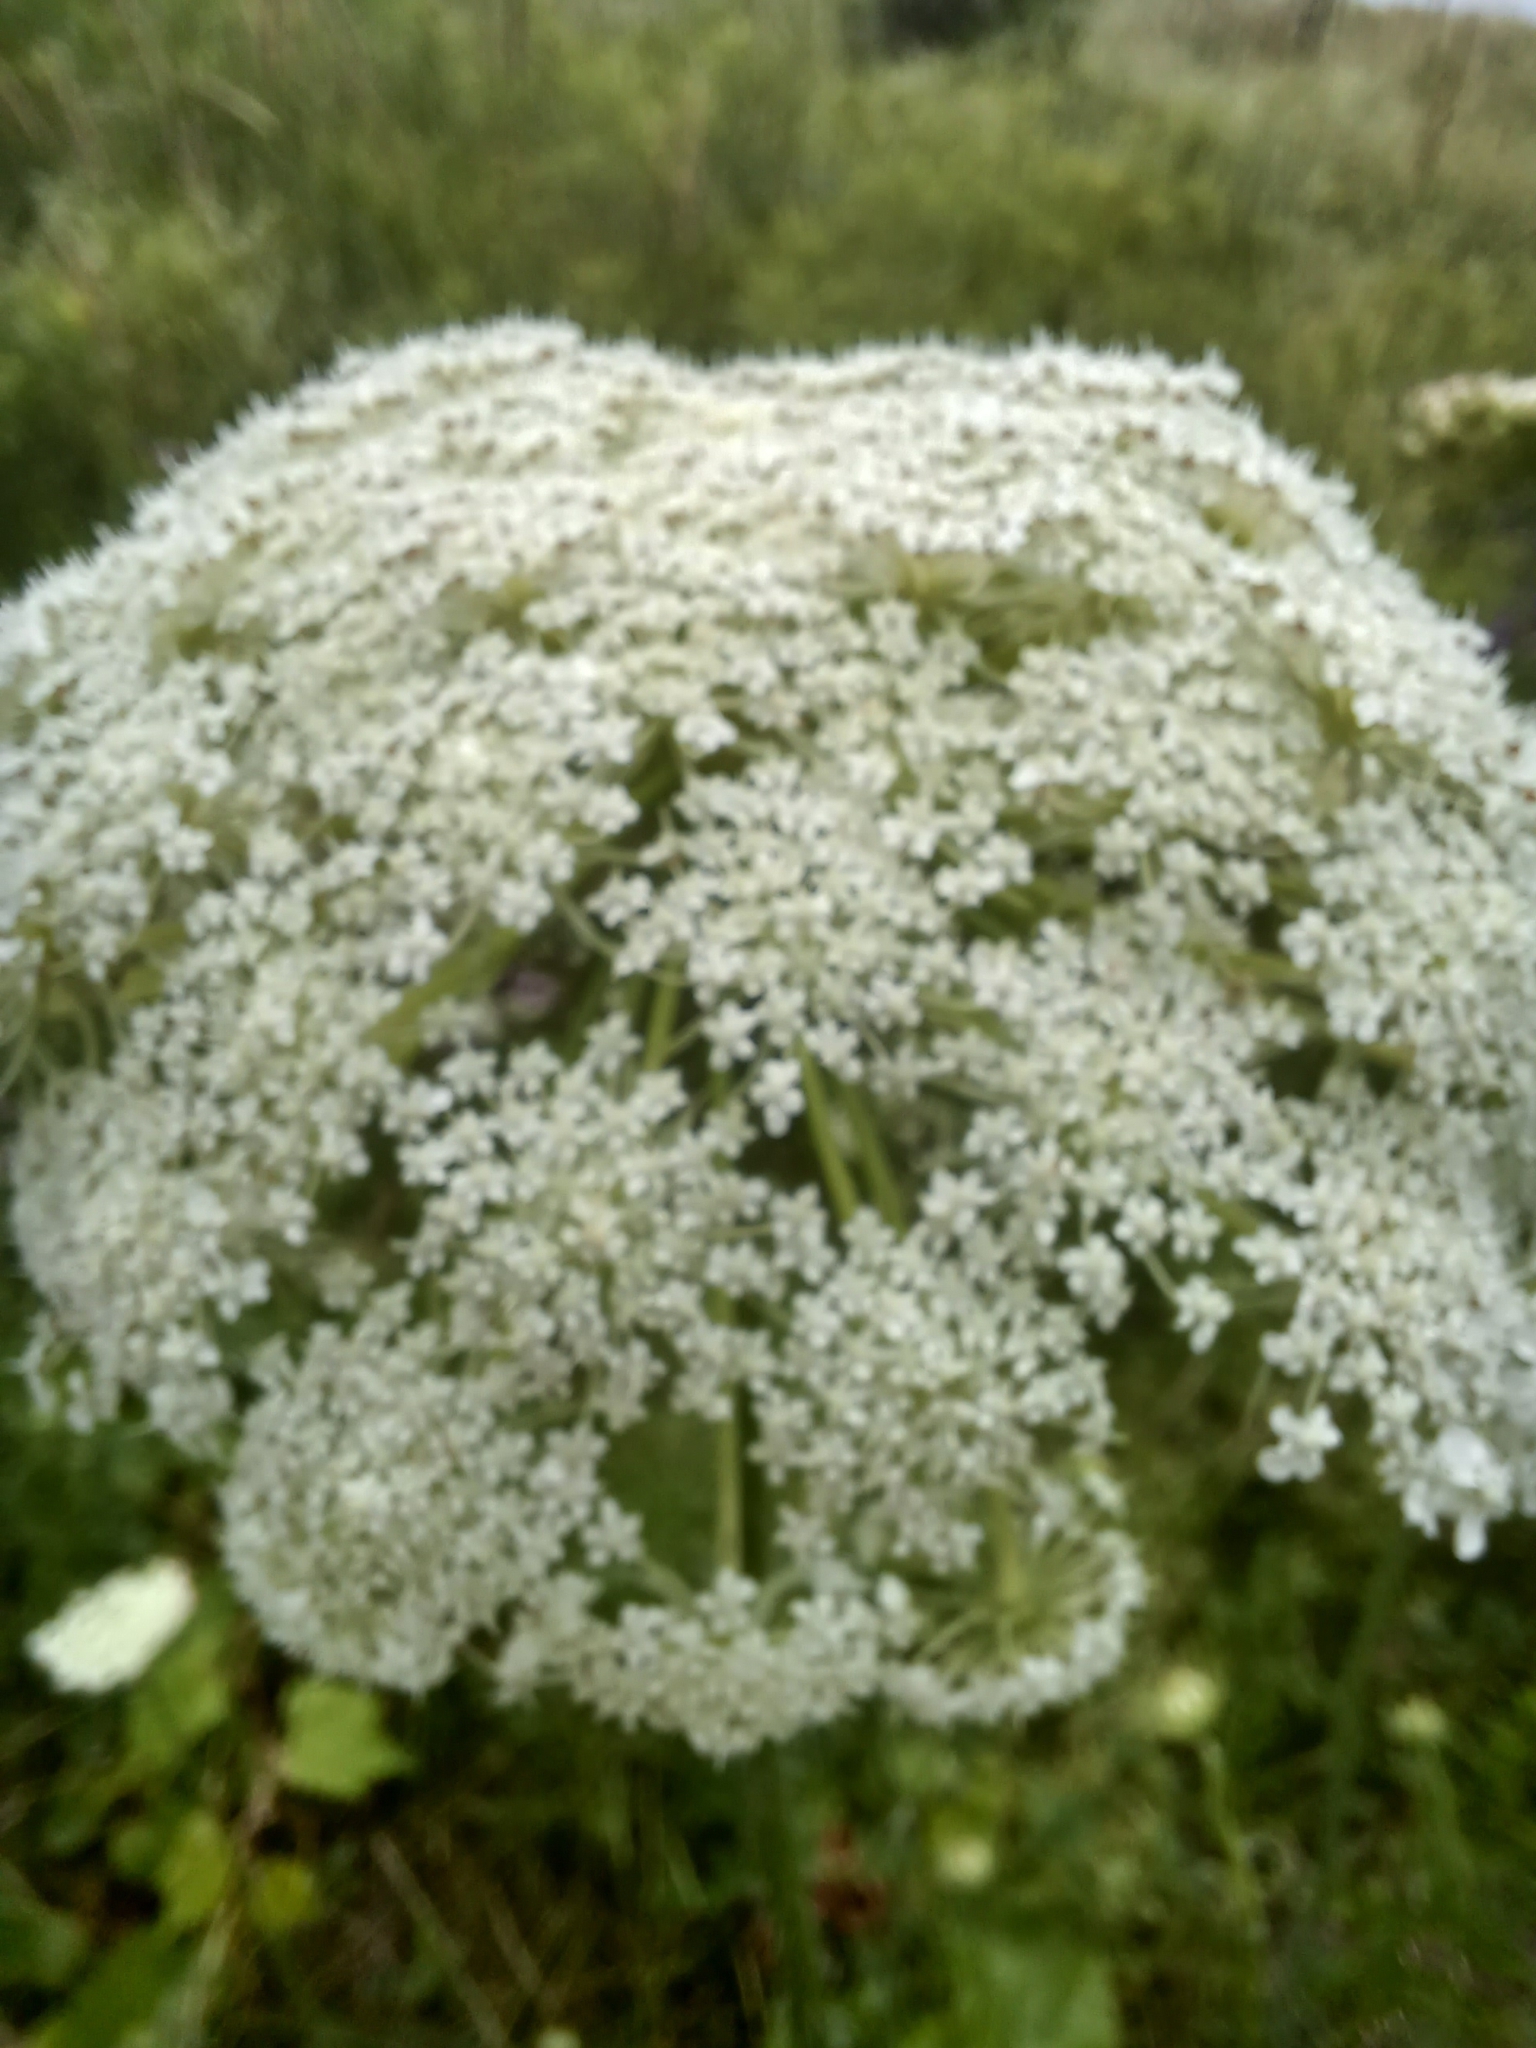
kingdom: Plantae
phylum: Tracheophyta
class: Magnoliopsida
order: Apiales
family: Apiaceae
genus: Daucus
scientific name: Daucus carota
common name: Wild carrot
